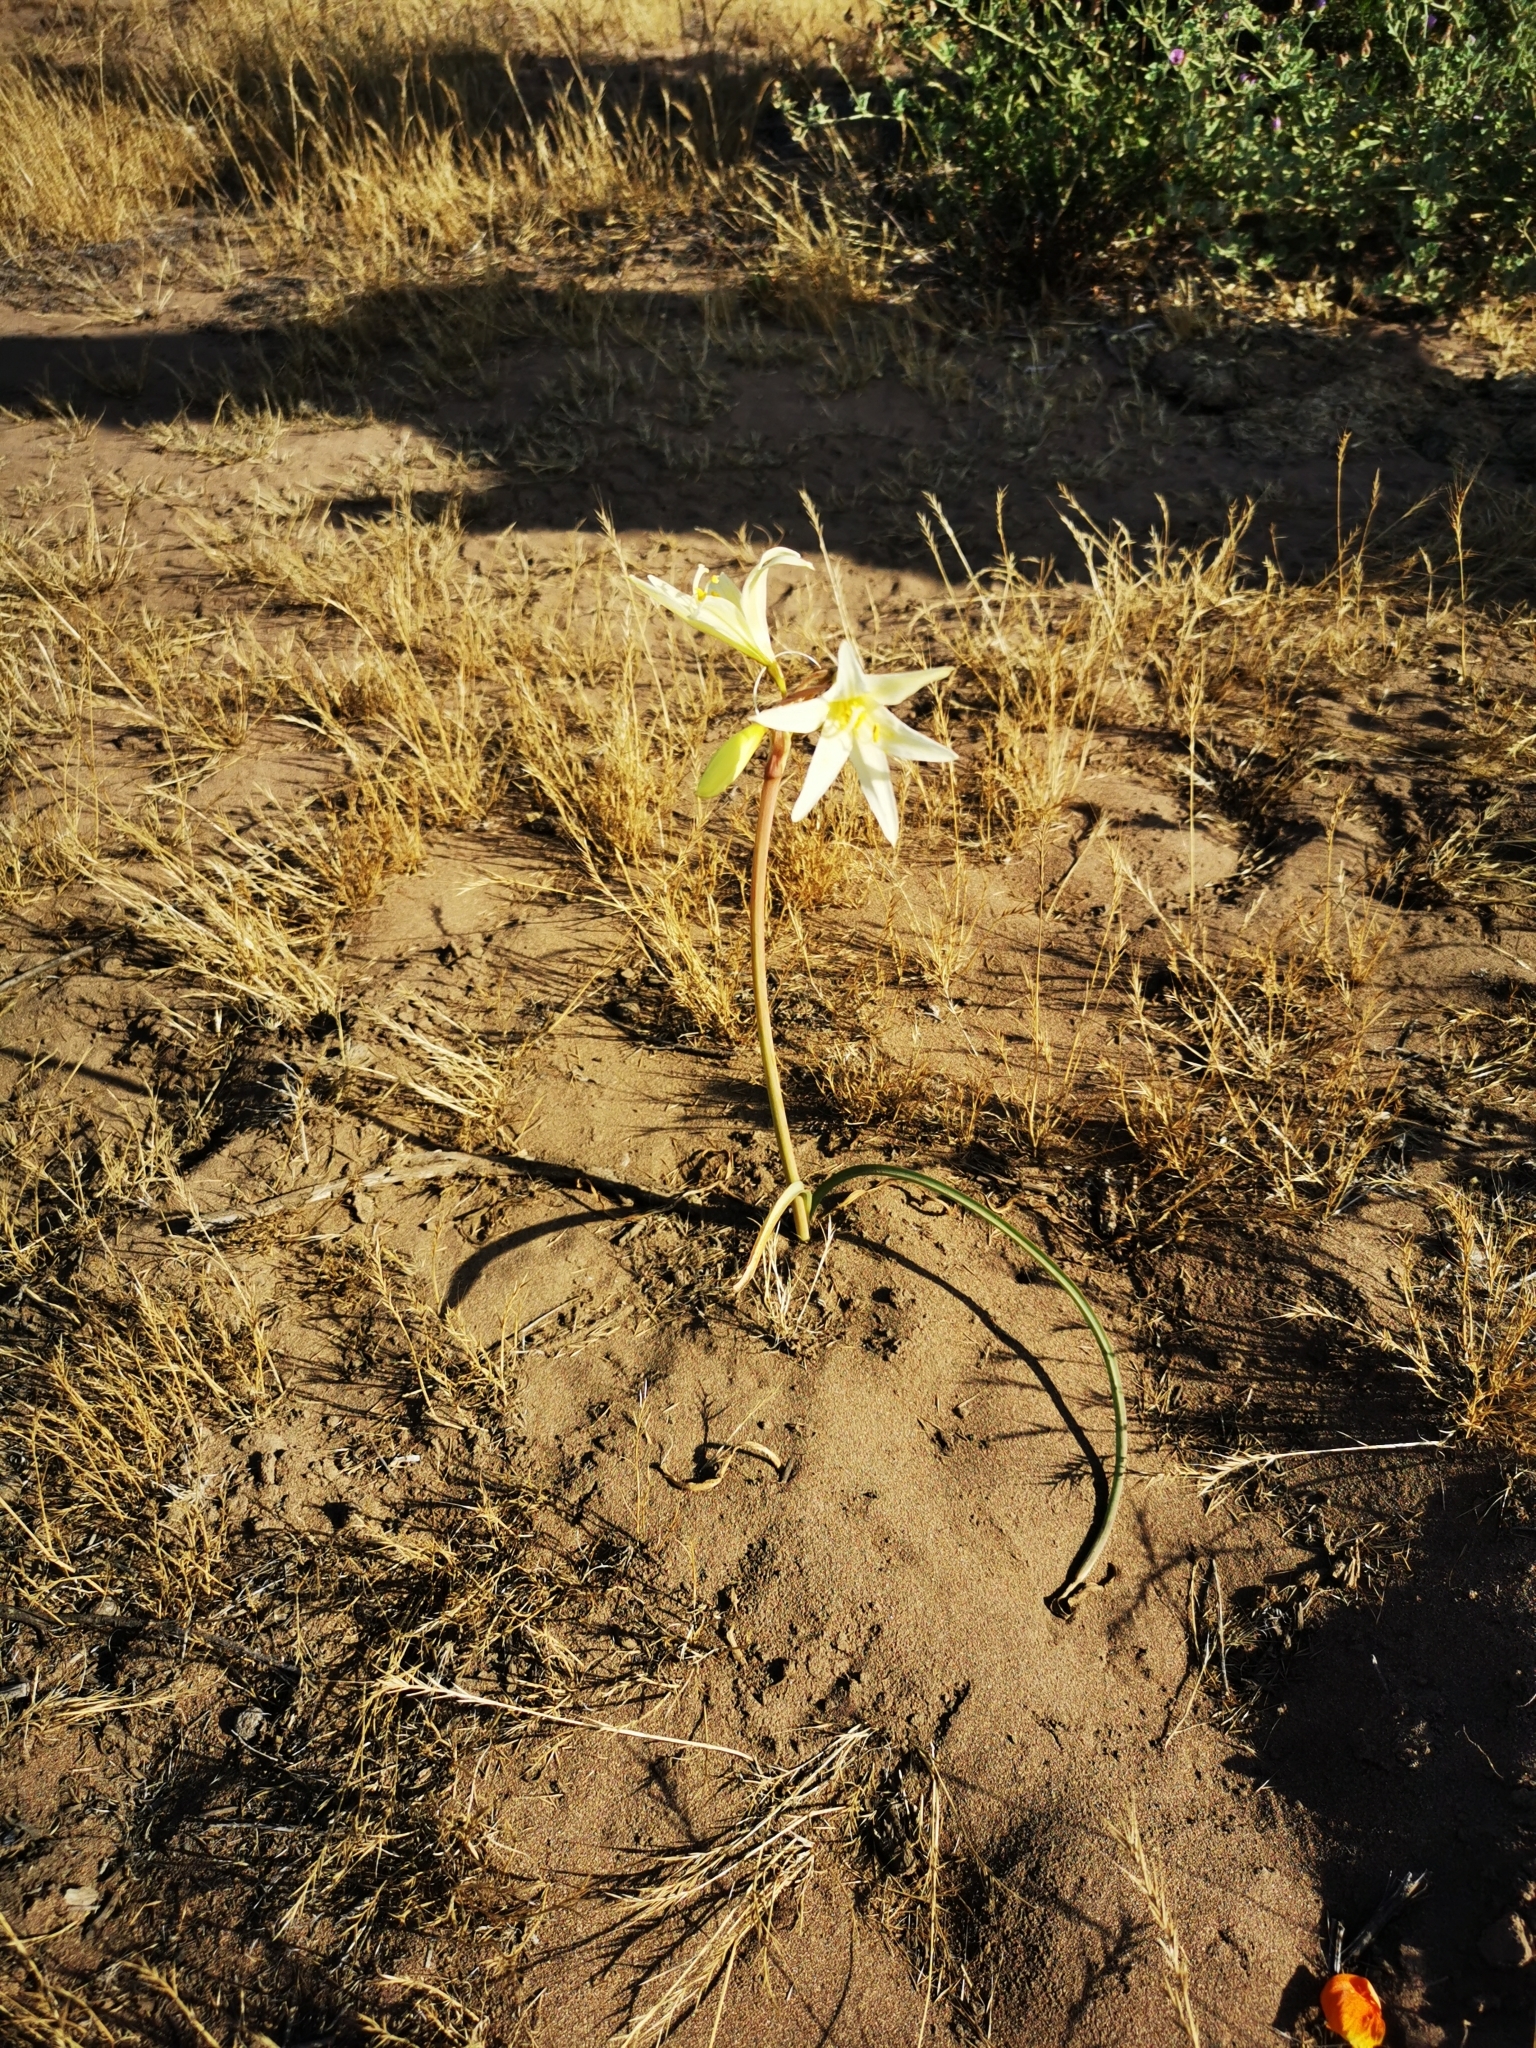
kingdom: Plantae
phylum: Tracheophyta
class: Liliopsida
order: Asparagales
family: Amaryllidaceae
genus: Zephyranthes
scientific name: Zephyranthes advena
